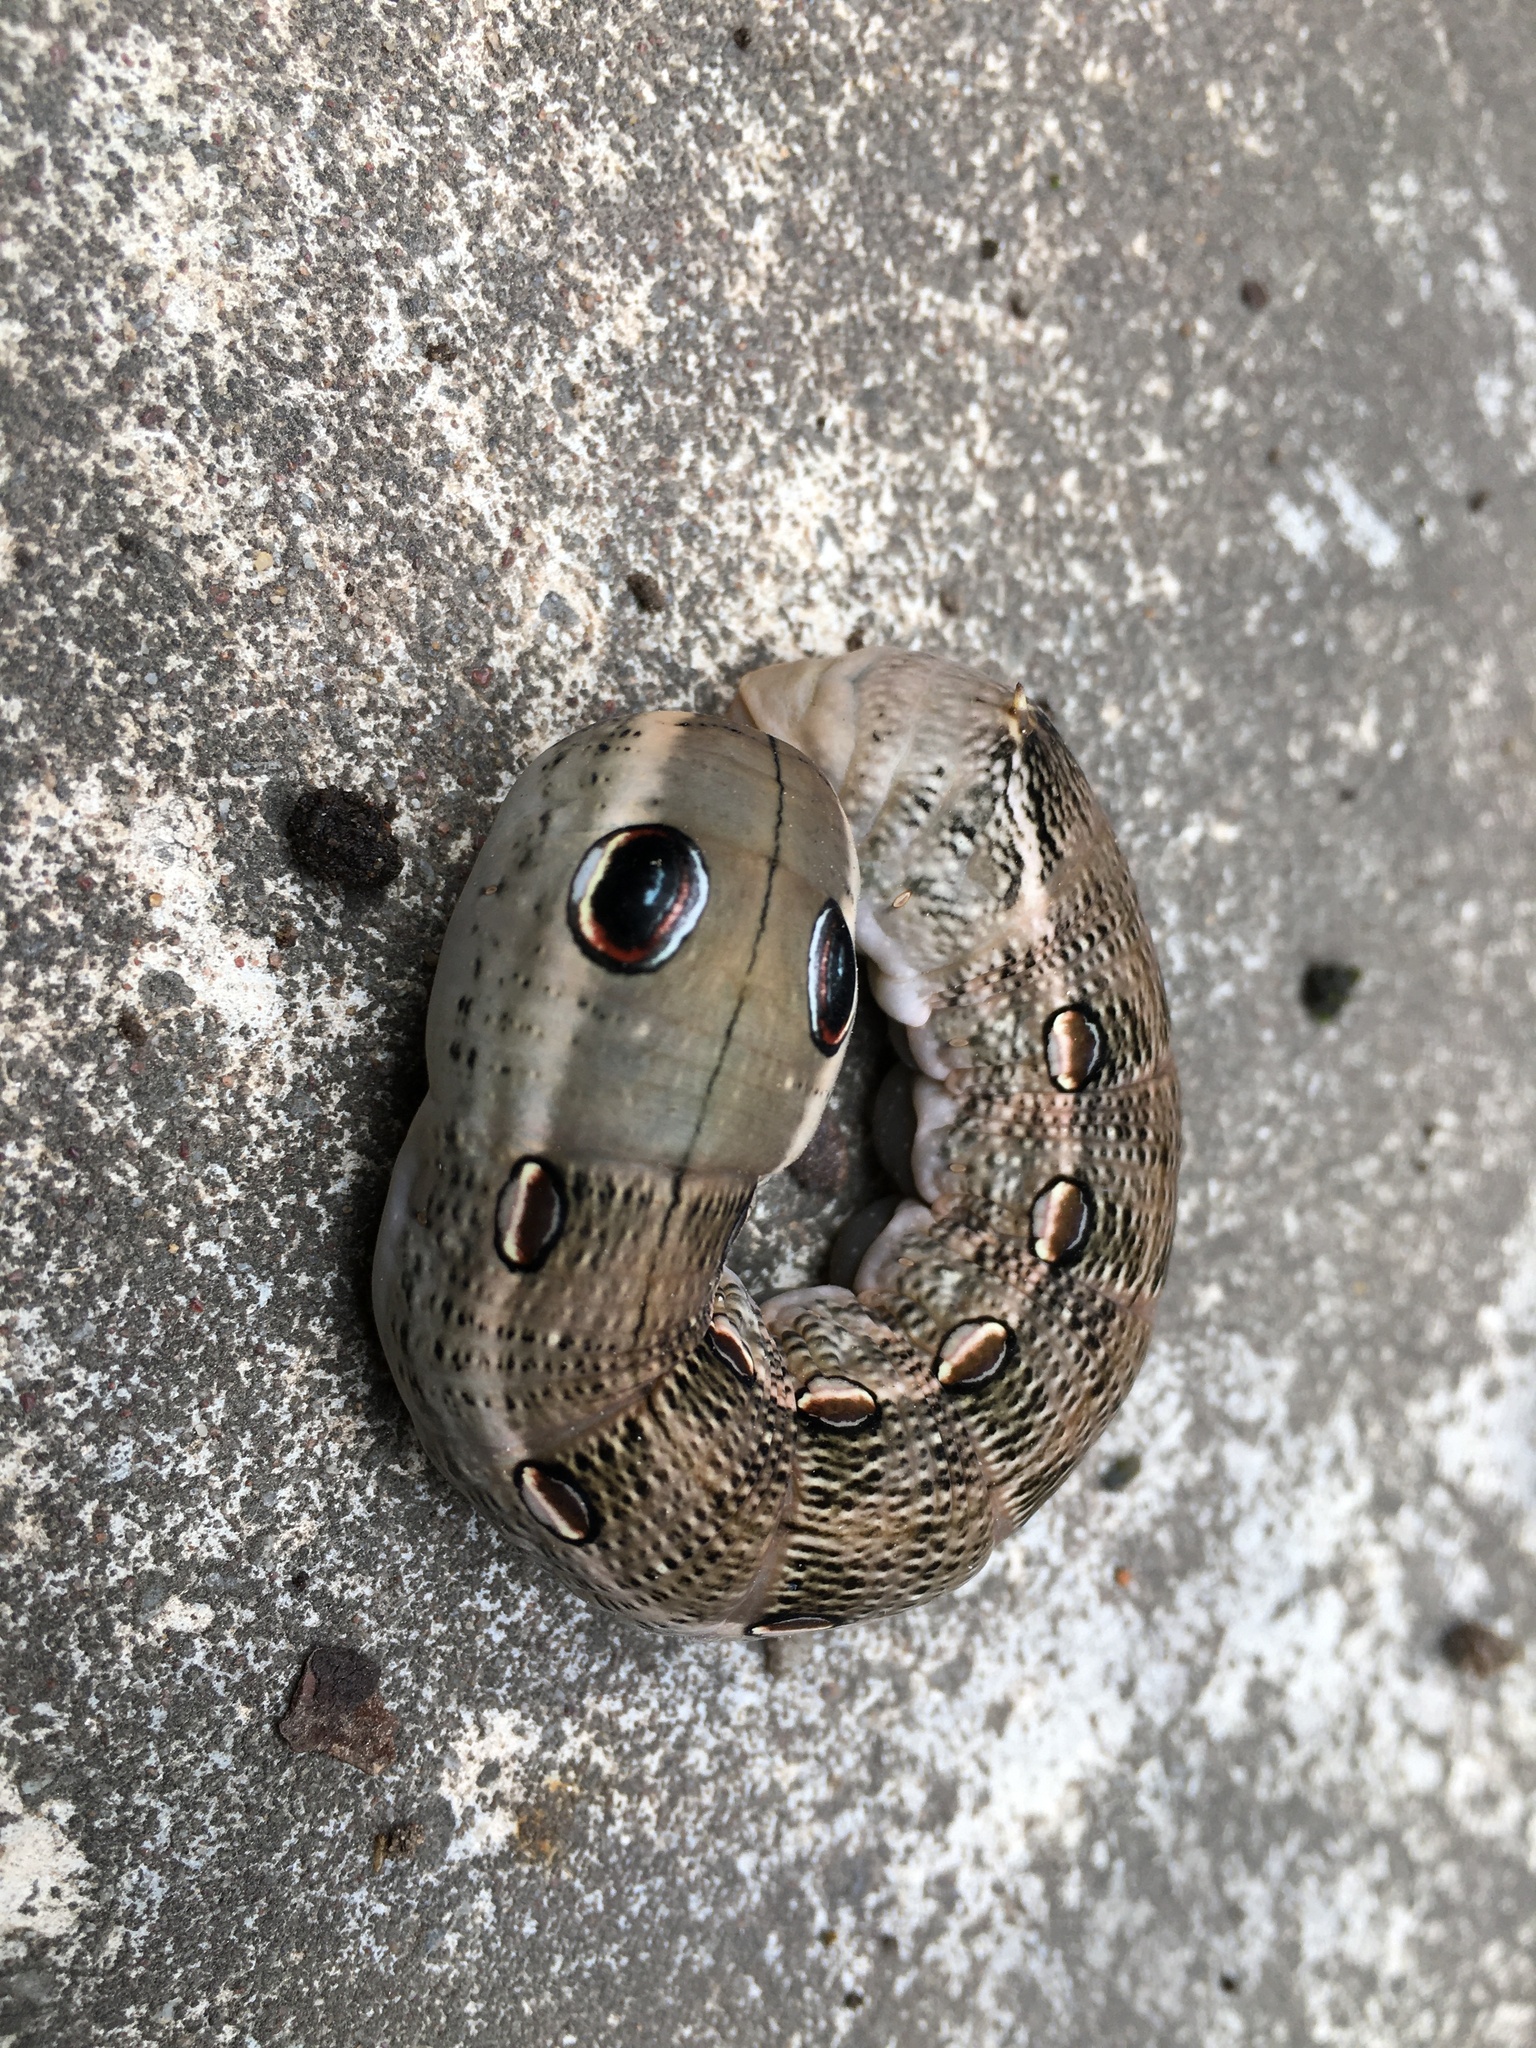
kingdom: Animalia
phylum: Arthropoda
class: Insecta
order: Lepidoptera
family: Sphingidae
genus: Theretra
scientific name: Theretra cajus
